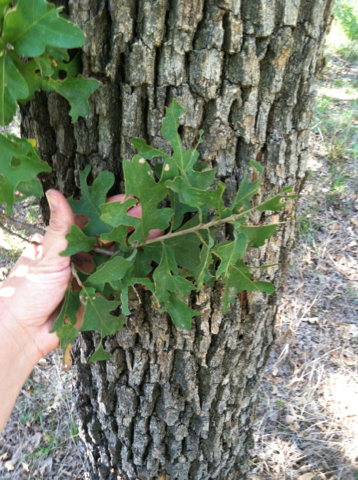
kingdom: Plantae
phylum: Tracheophyta
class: Magnoliopsida
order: Fagales
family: Fagaceae
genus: Quercus
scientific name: Quercus stellata
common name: Post oak
